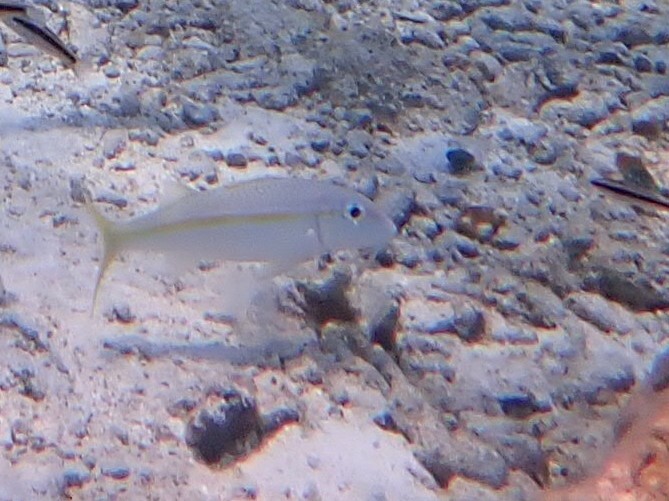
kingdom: Animalia
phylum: Chordata
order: Perciformes
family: Mullidae
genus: Mulloidichthys
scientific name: Mulloidichthys martinicus
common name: Yellow goatfish
